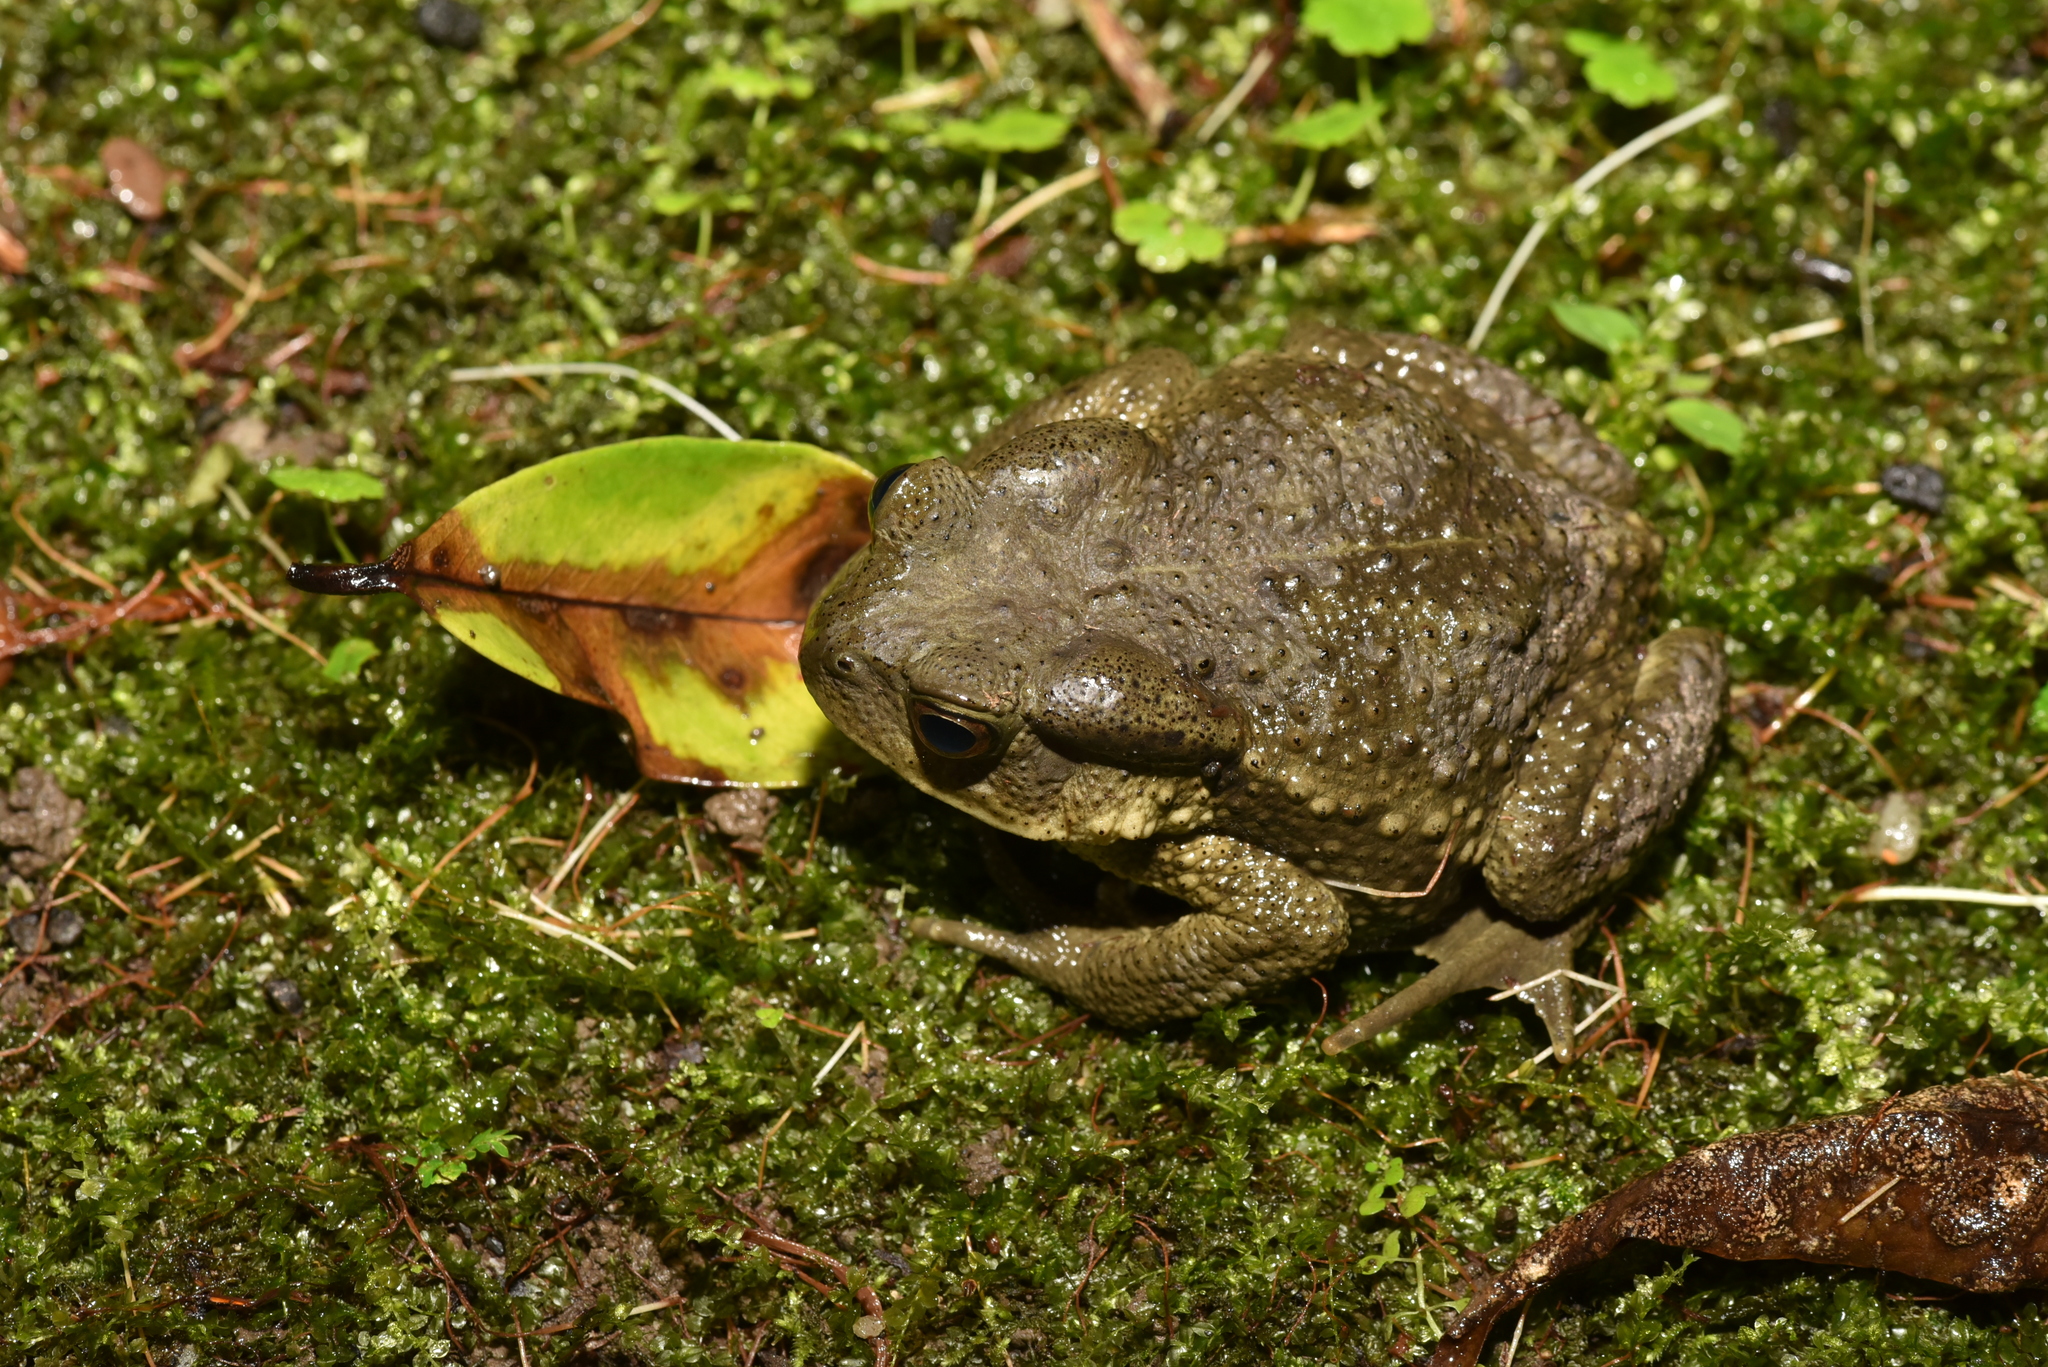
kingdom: Animalia
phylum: Chordata
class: Amphibia
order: Anura
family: Bufonidae
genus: Bufo
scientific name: Bufo bankorensis
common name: Bankor toad
